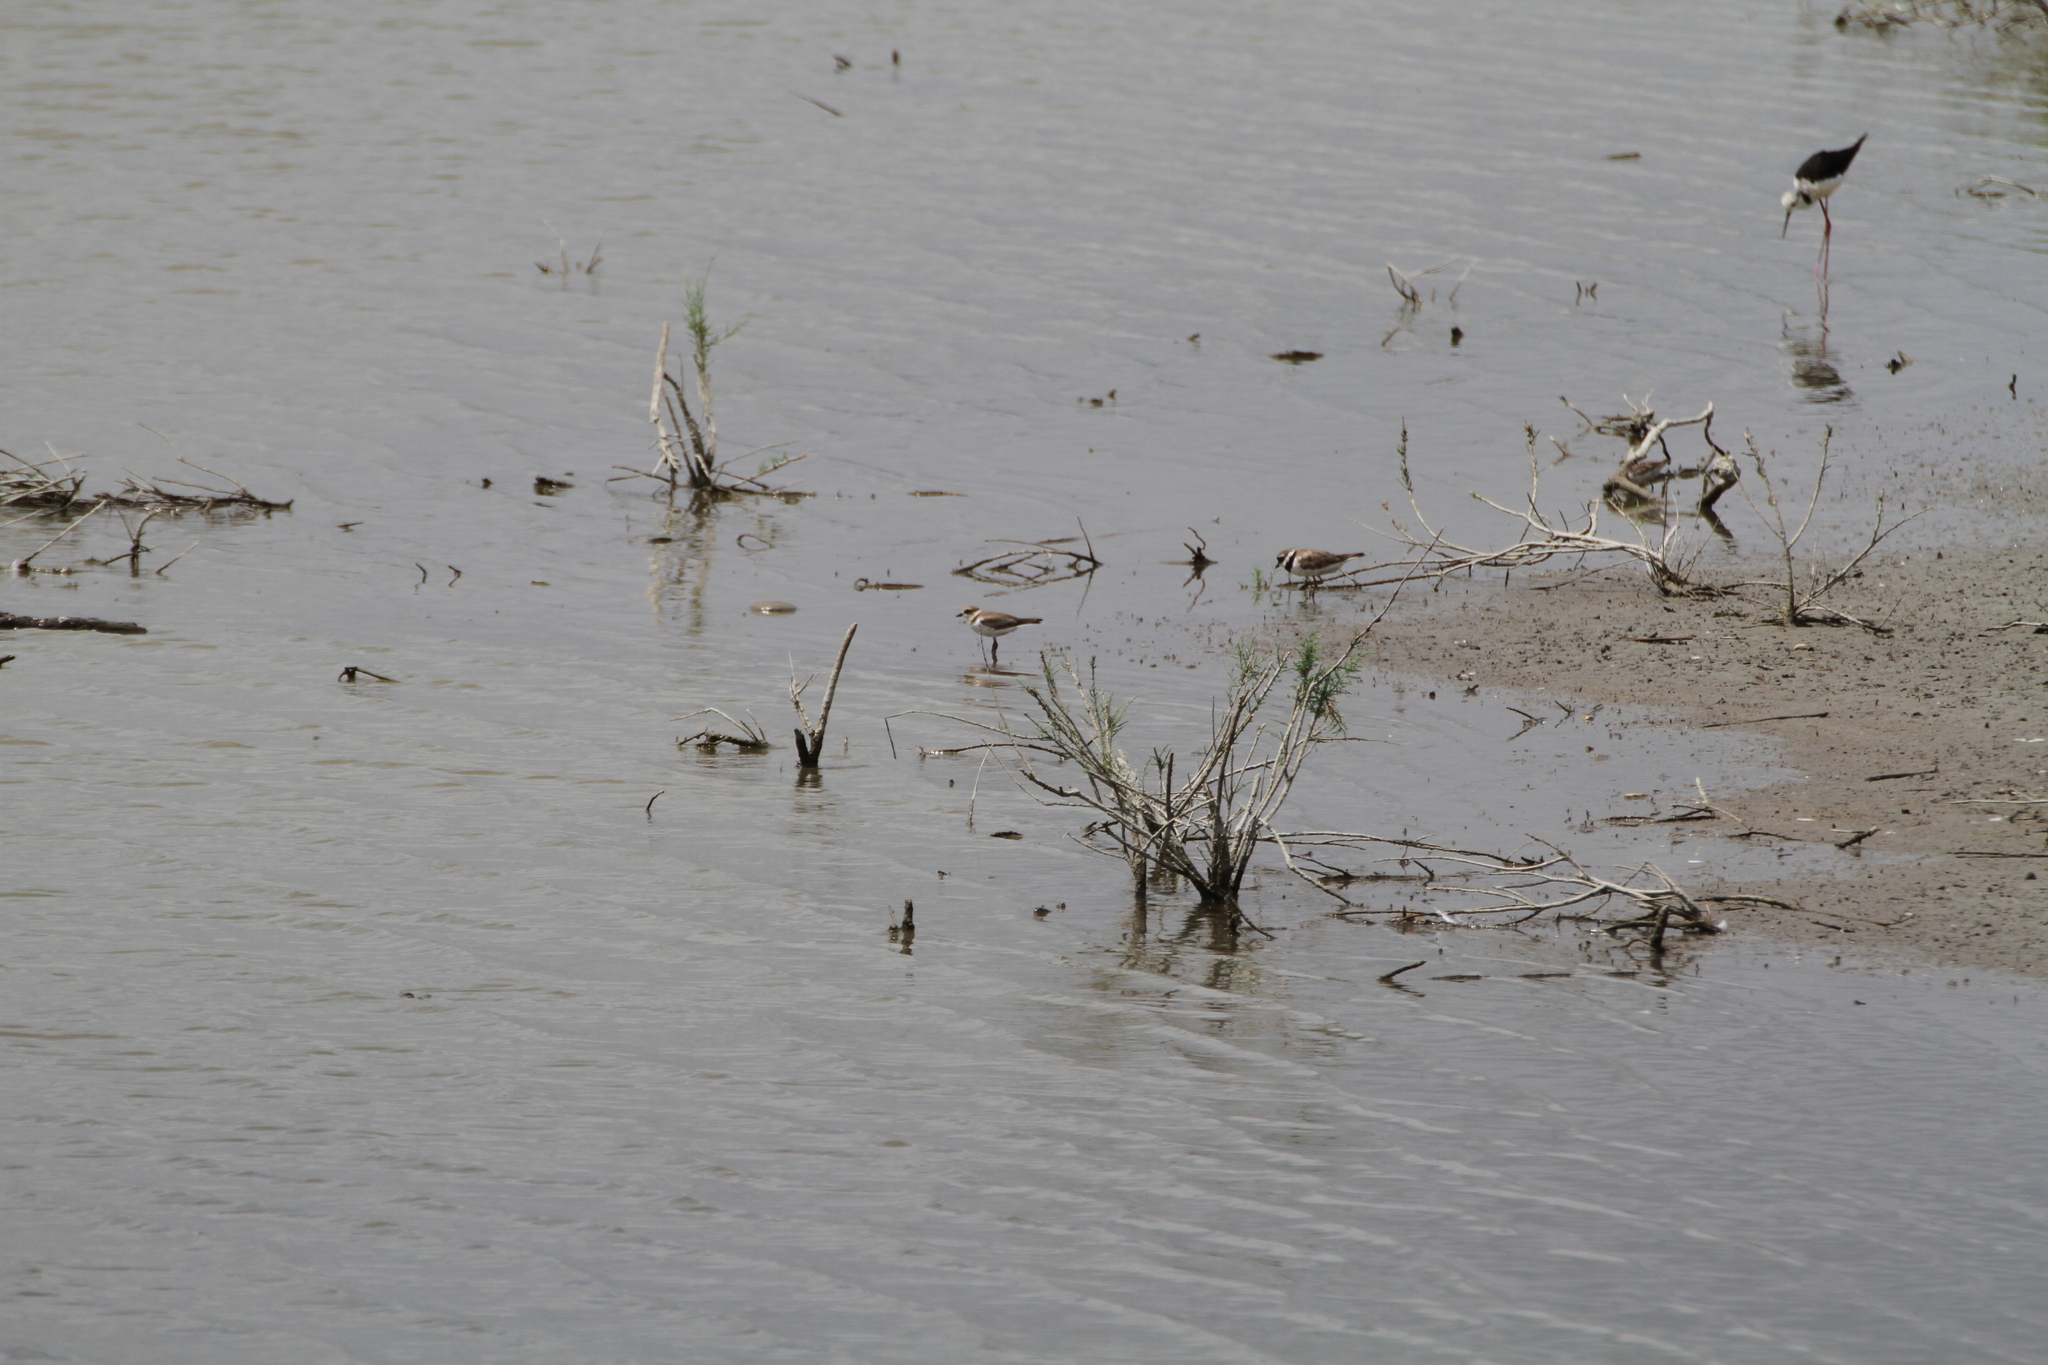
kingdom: Animalia
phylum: Chordata
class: Aves
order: Charadriiformes
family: Charadriidae
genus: Charadrius
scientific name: Charadrius hiaticula
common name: Common ringed plover
